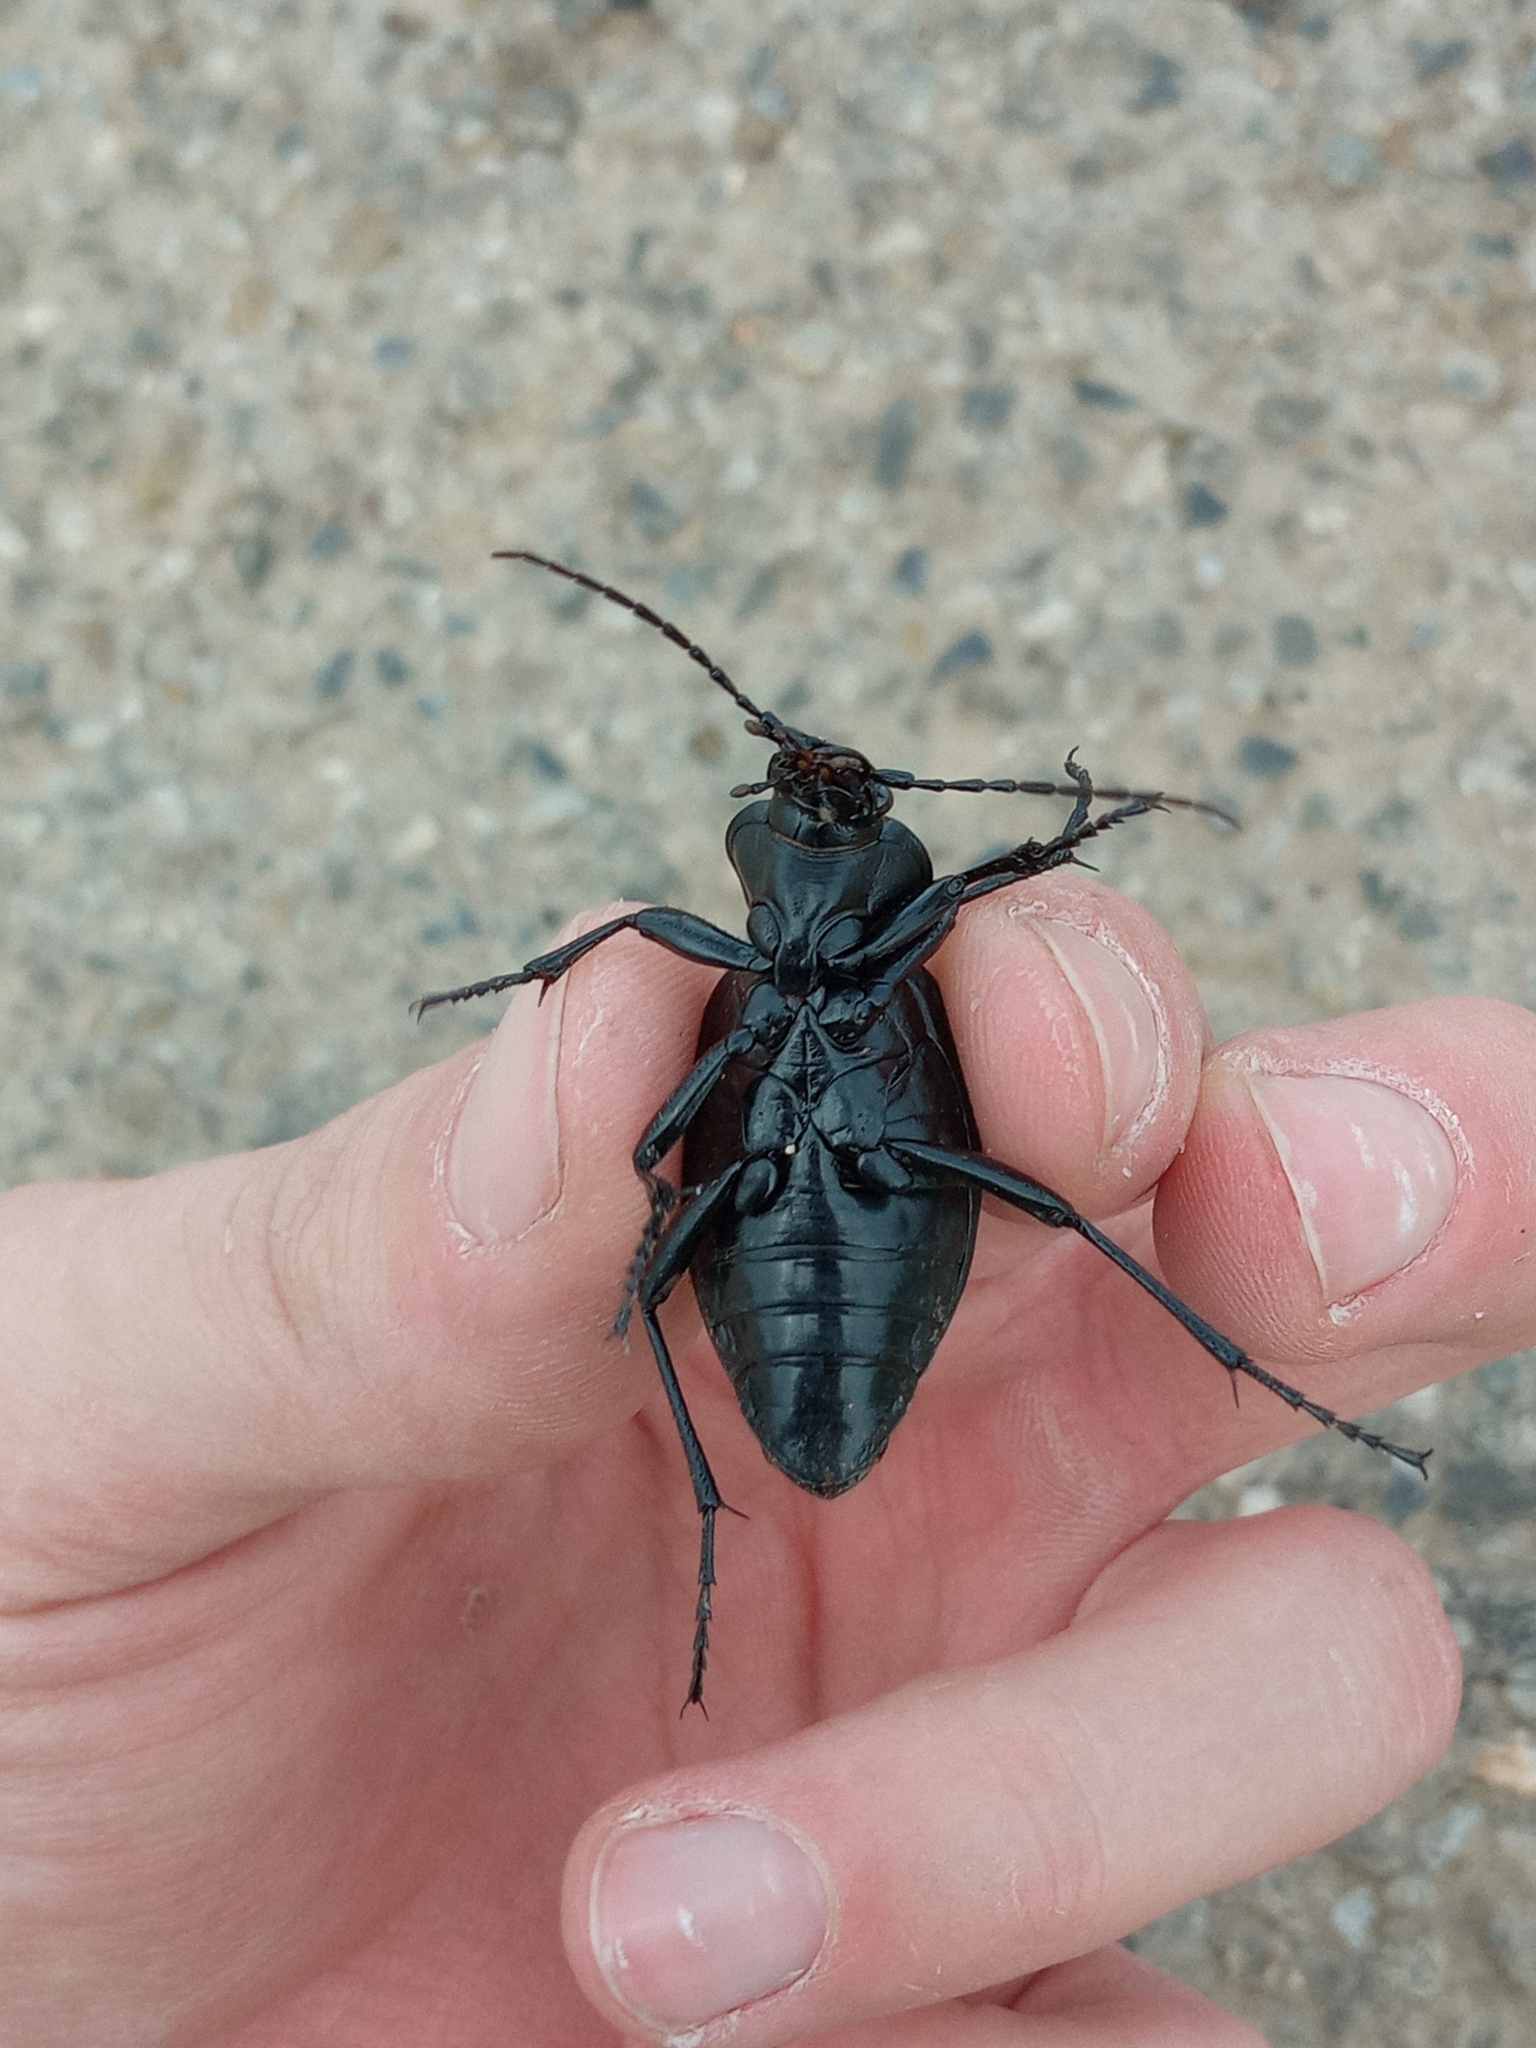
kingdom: Animalia
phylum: Arthropoda
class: Insecta
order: Coleoptera
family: Carabidae
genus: Carabus
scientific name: Carabus coriaceus
